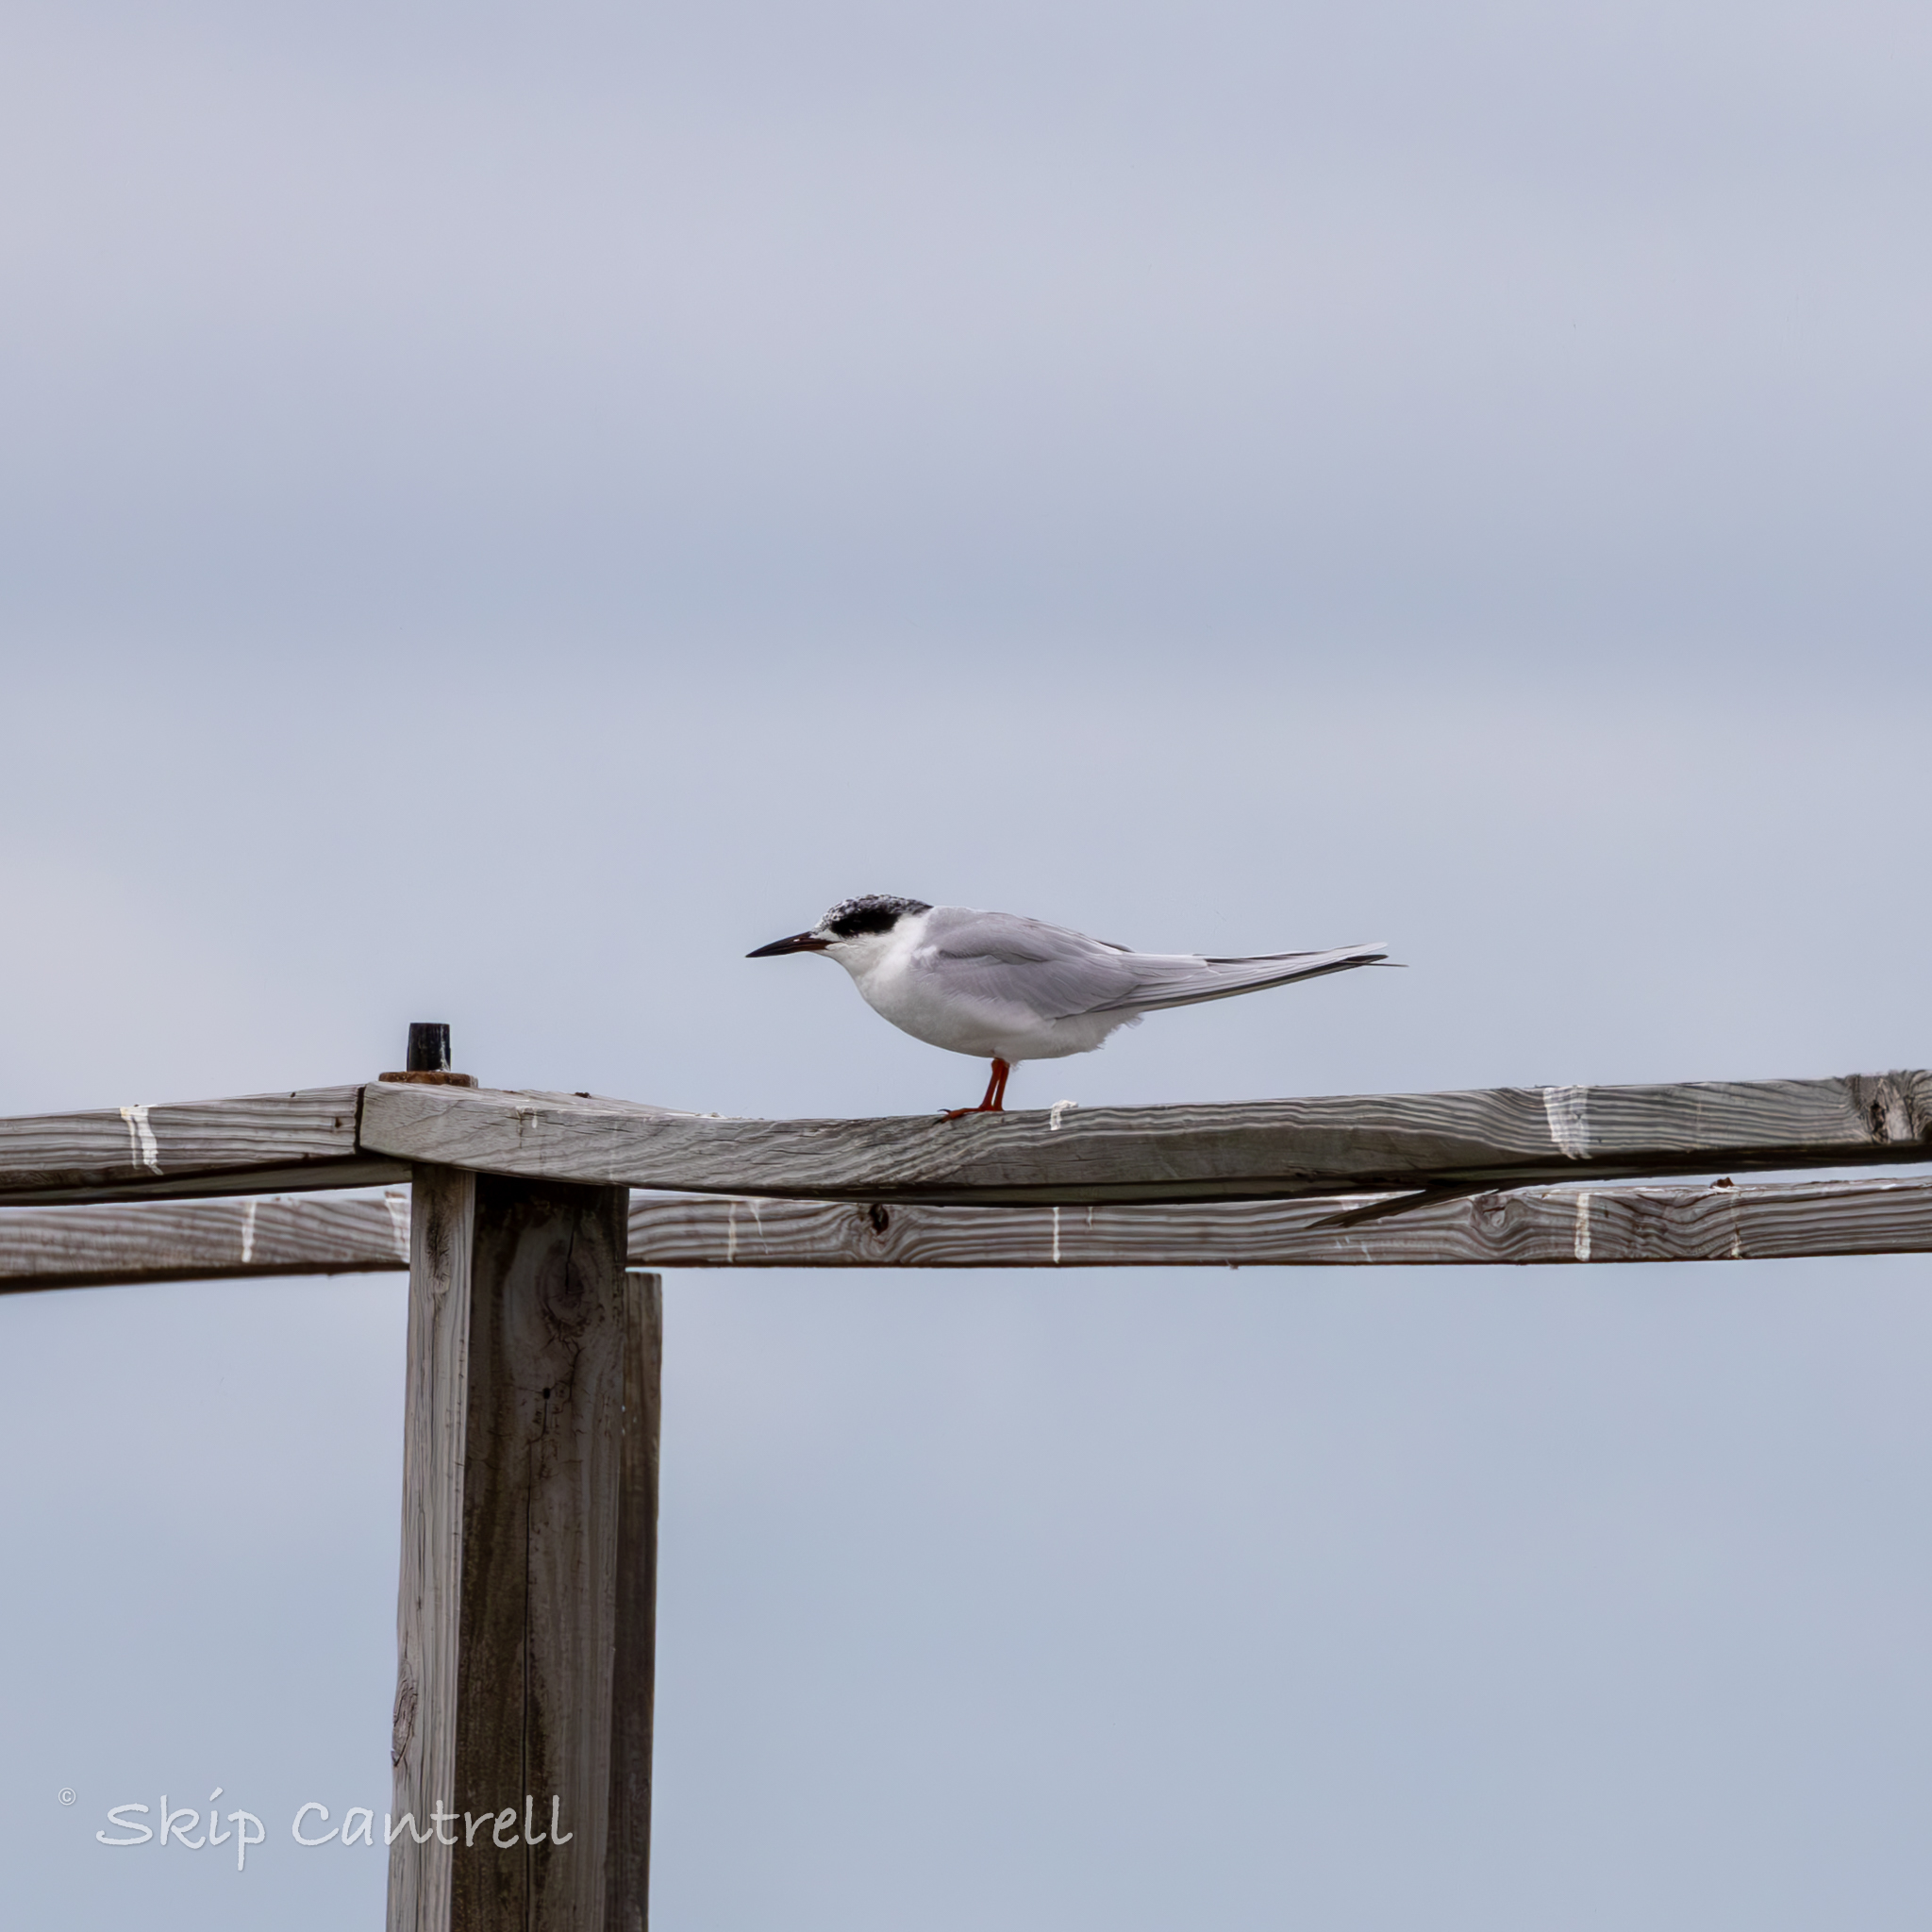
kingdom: Animalia
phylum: Chordata
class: Aves
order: Charadriiformes
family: Laridae
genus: Sterna
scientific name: Sterna forsteri
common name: Forster's tern
